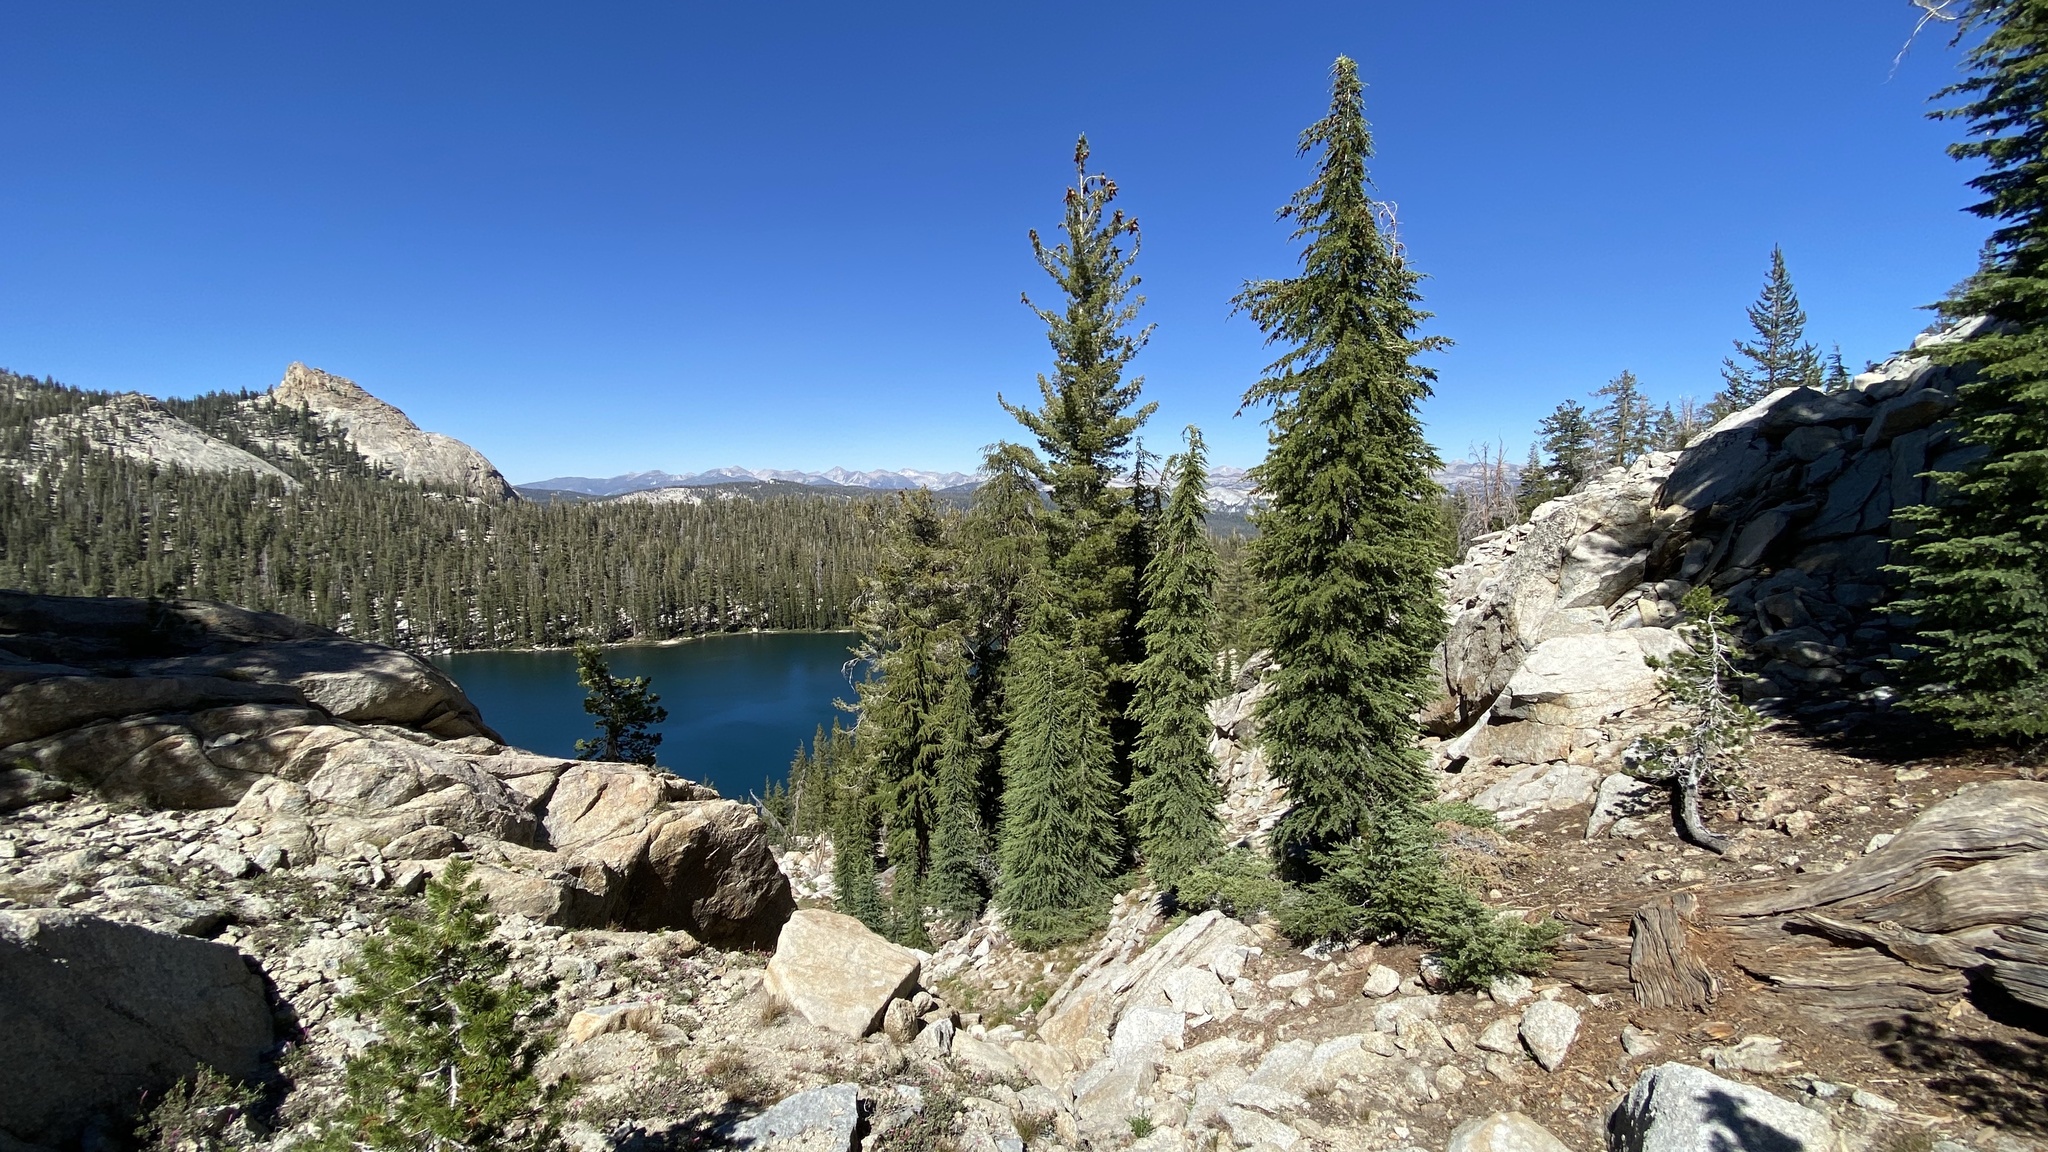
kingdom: Plantae
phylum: Tracheophyta
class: Pinopsida
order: Pinales
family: Pinaceae
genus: Tsuga
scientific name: Tsuga mertensiana
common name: Mountain hemlock
